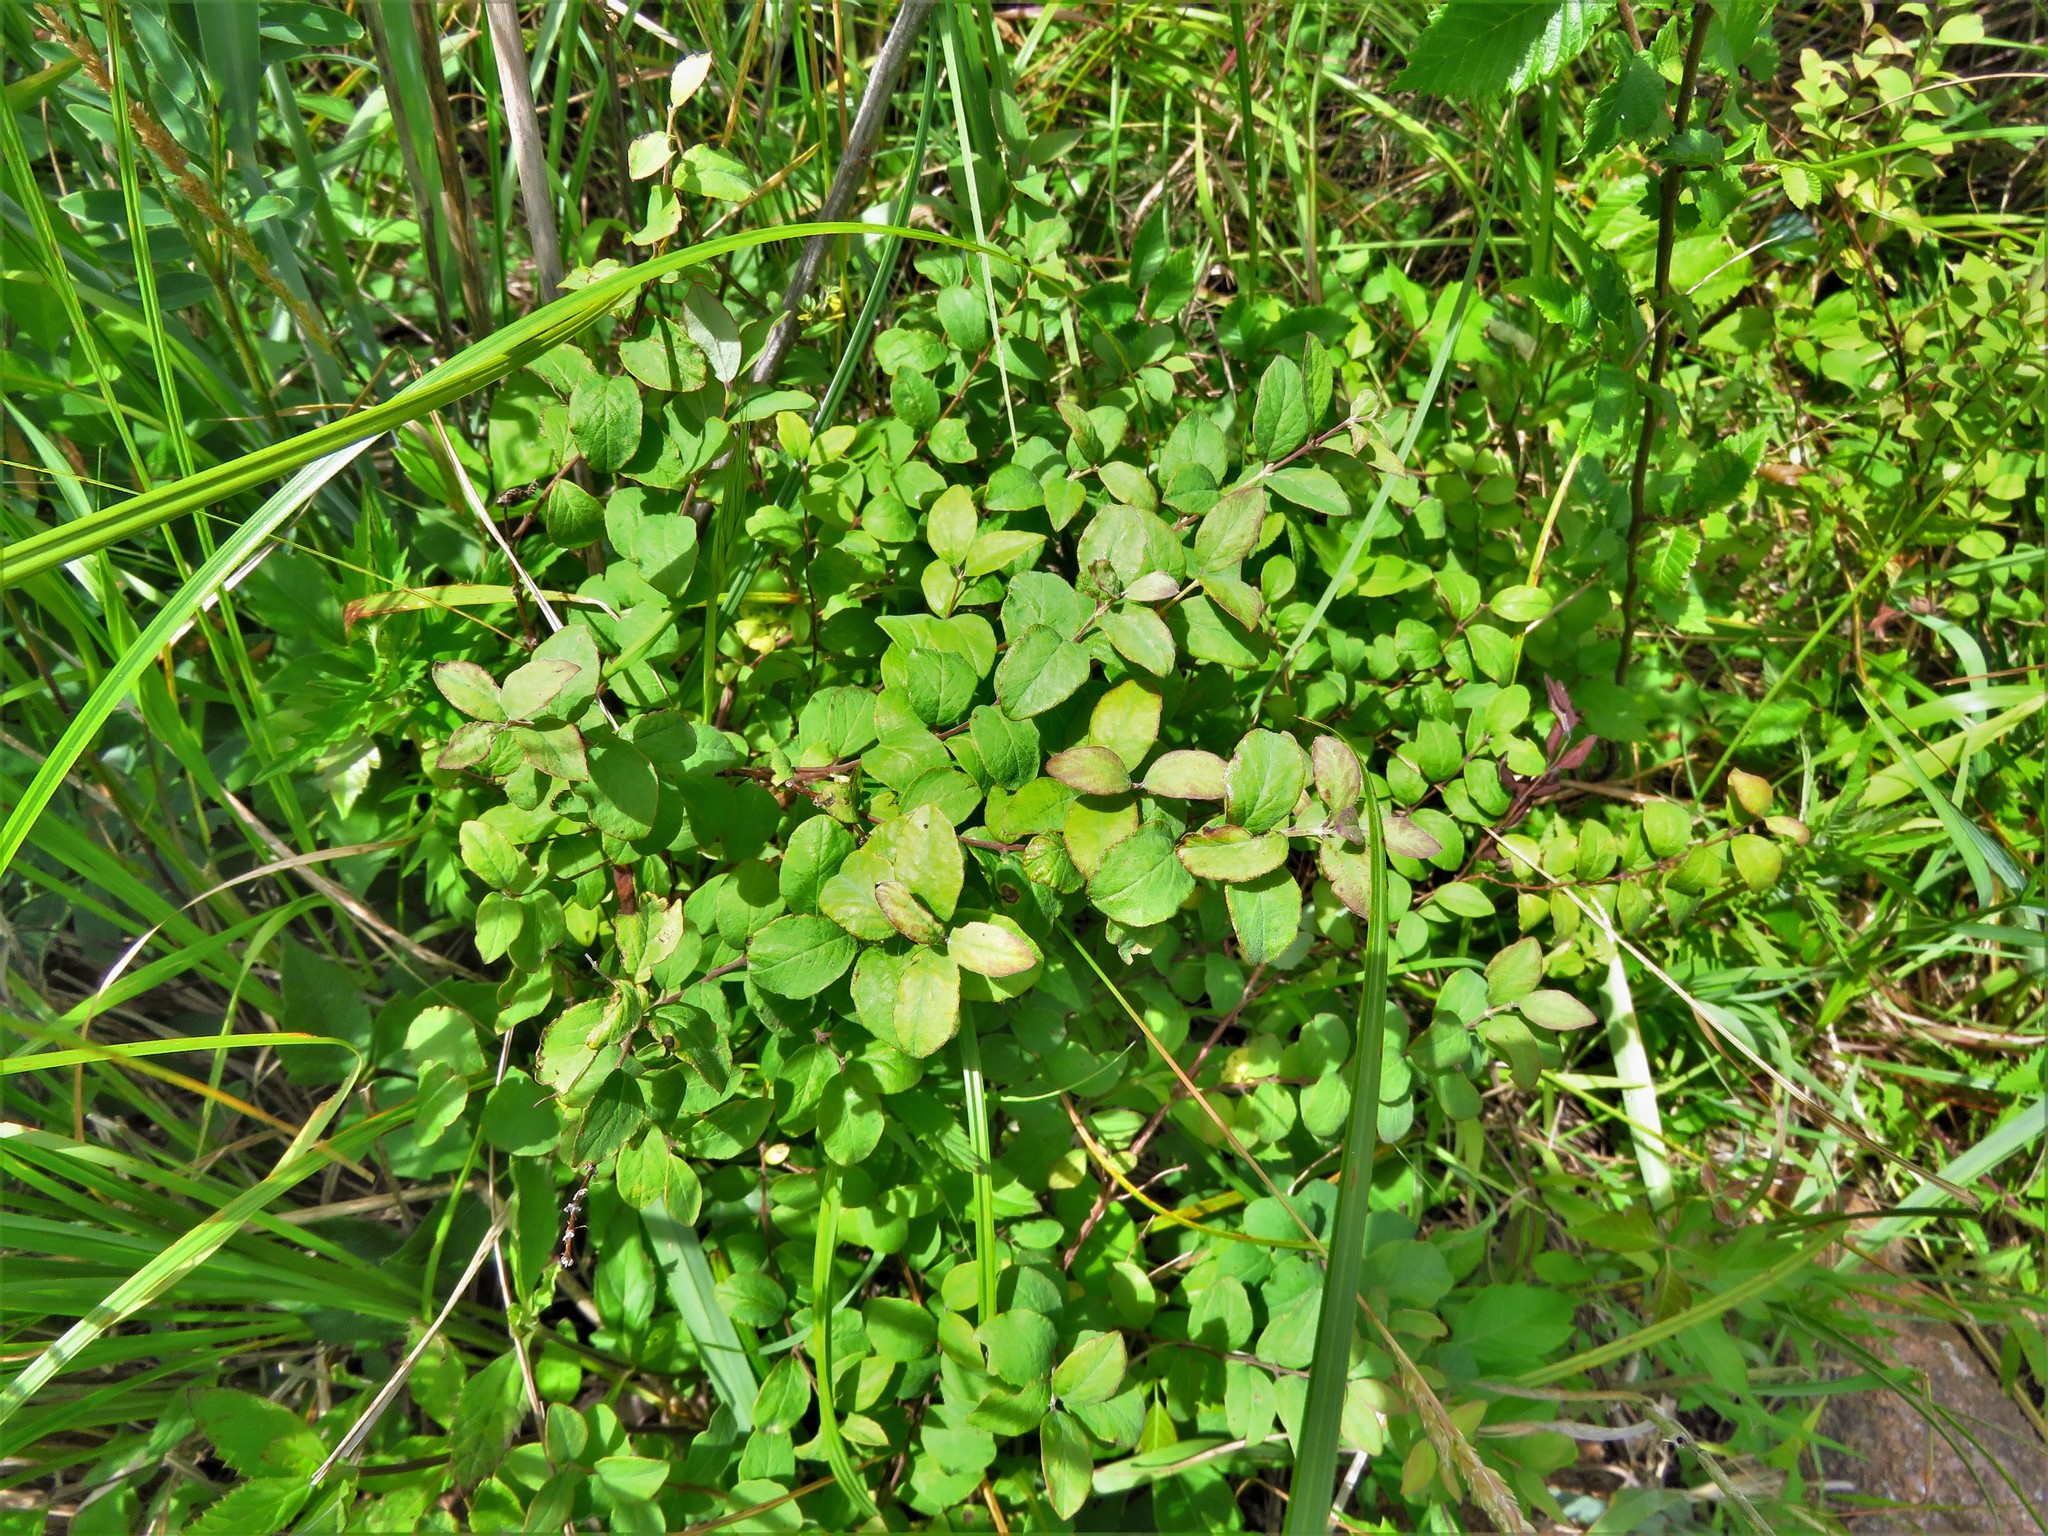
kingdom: Plantae
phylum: Tracheophyta
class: Magnoliopsida
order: Dipsacales
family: Caprifoliaceae
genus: Symphoricarpos
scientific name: Symphoricarpos orbiculatus
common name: Coralberry
